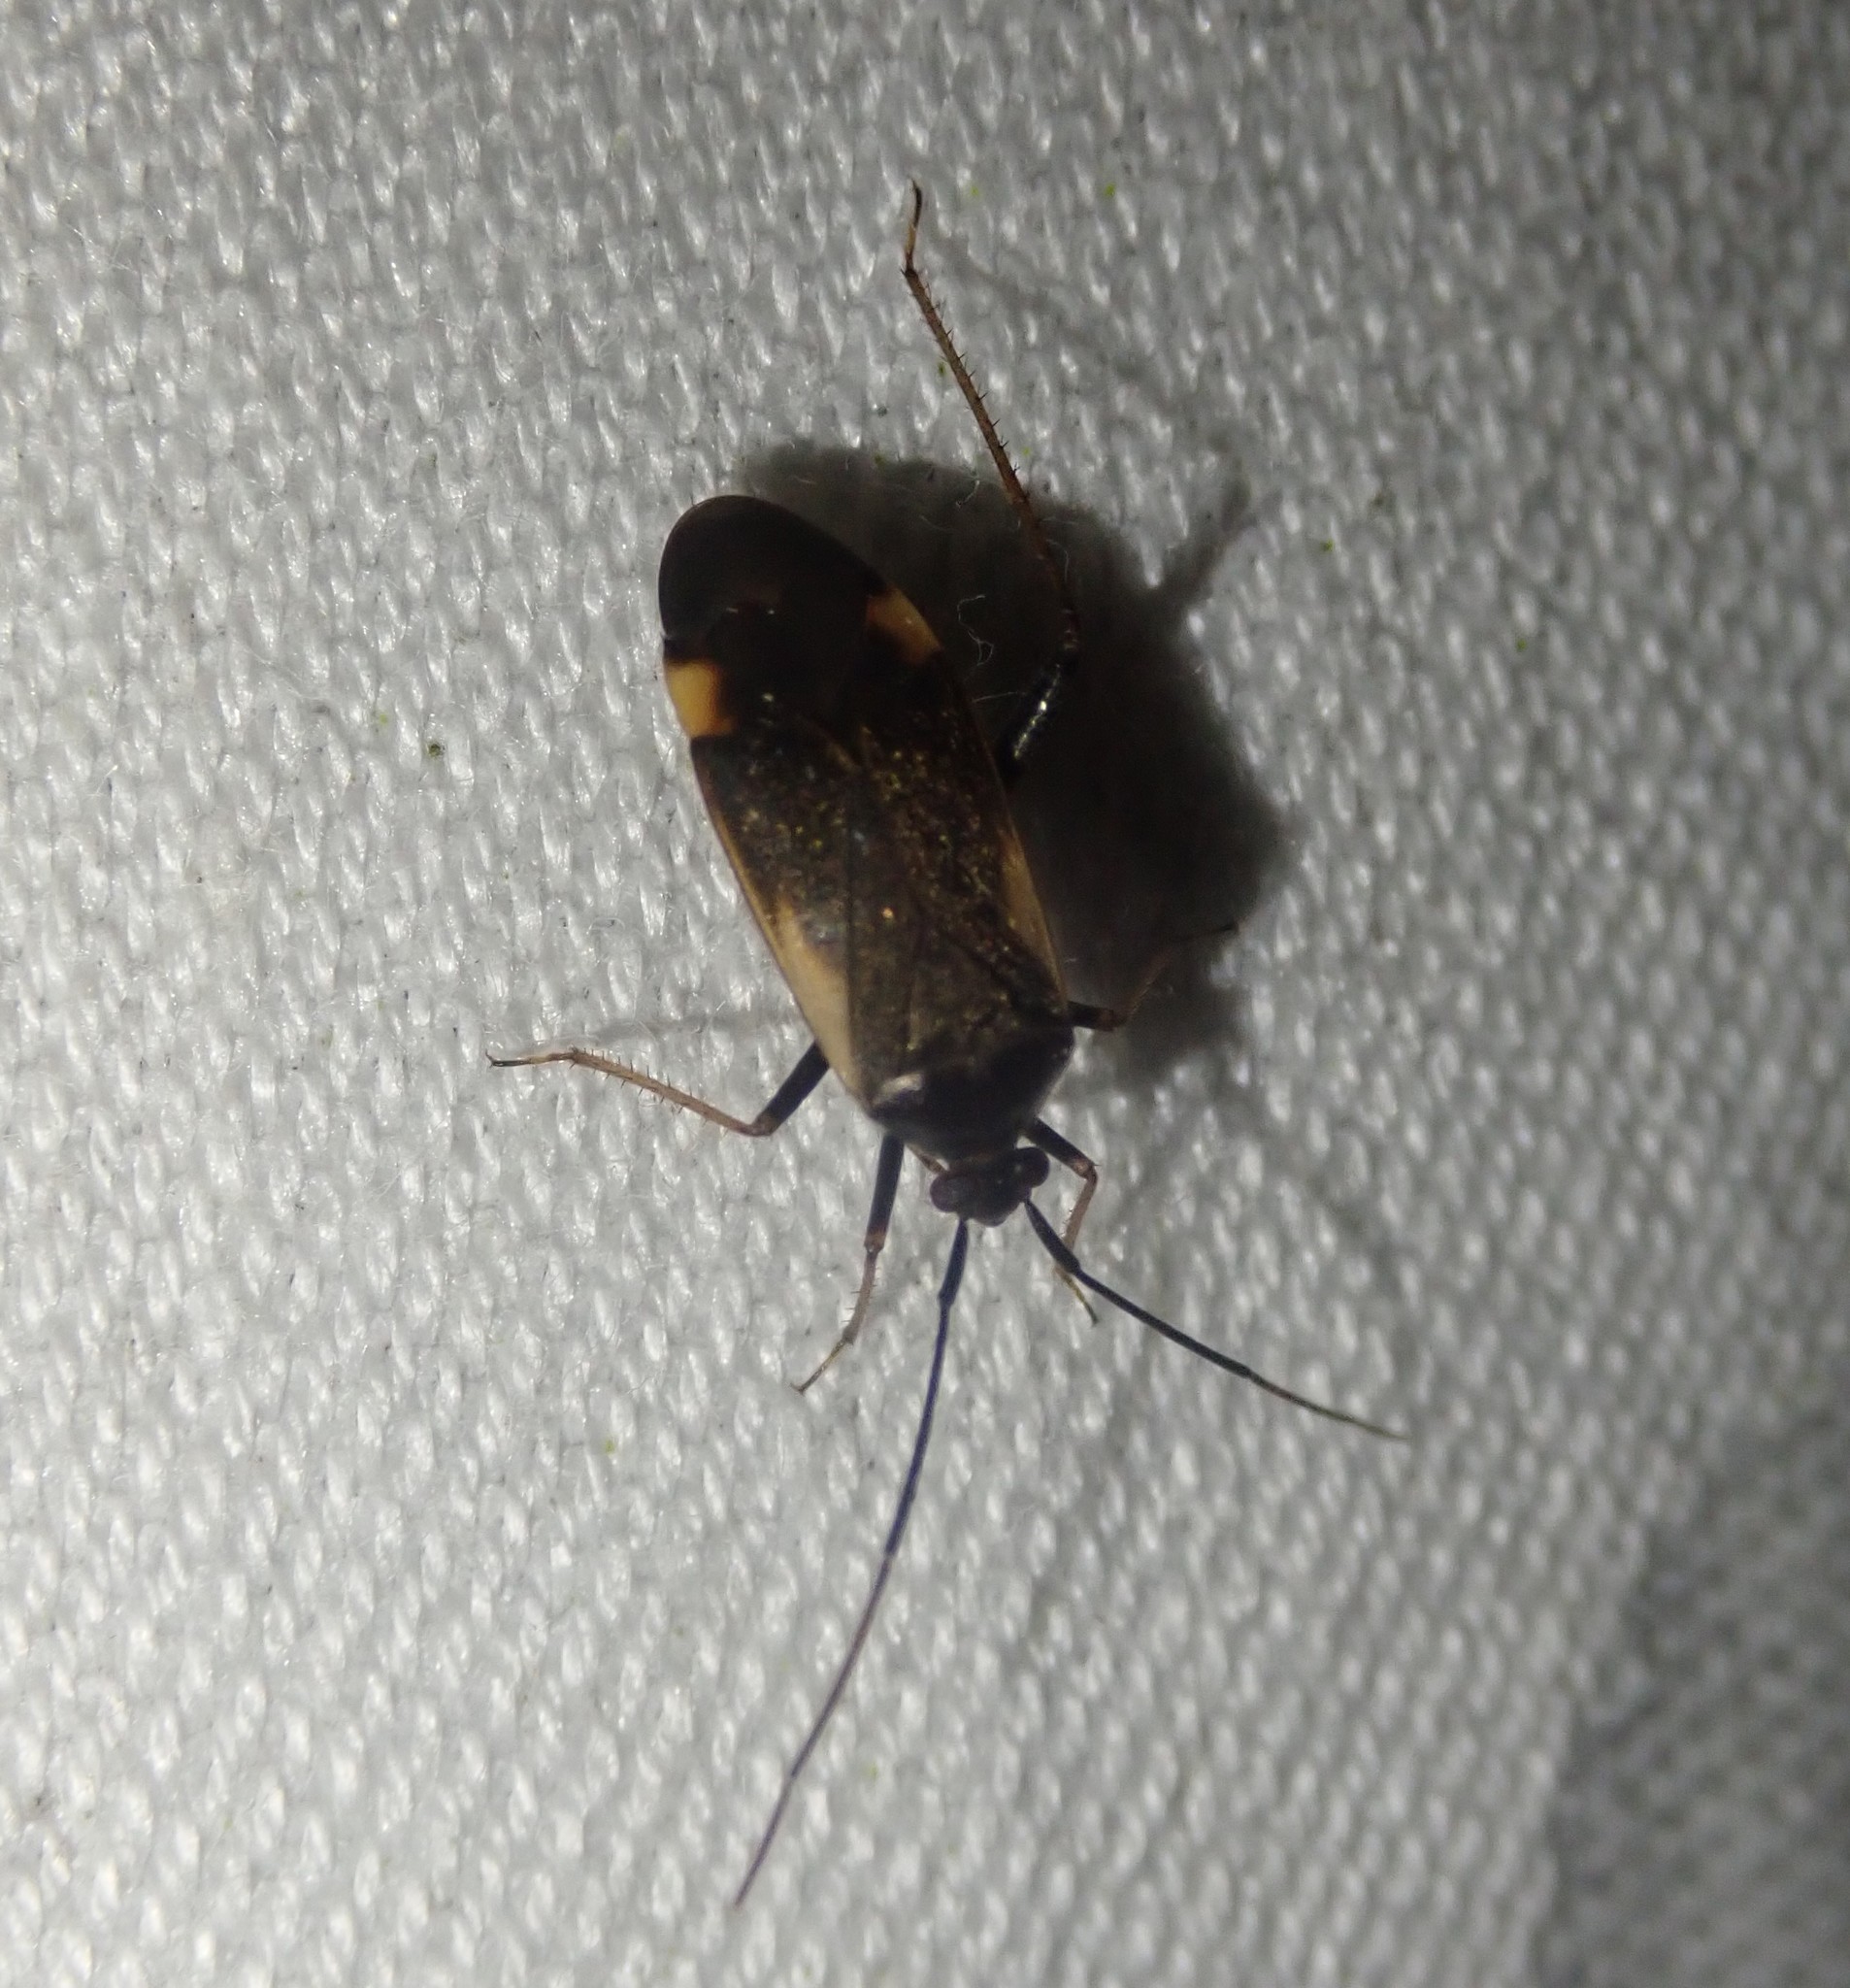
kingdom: Animalia
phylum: Arthropoda
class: Insecta
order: Hemiptera
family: Miridae
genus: Adelphocoris
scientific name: Adelphocoris seticornis
